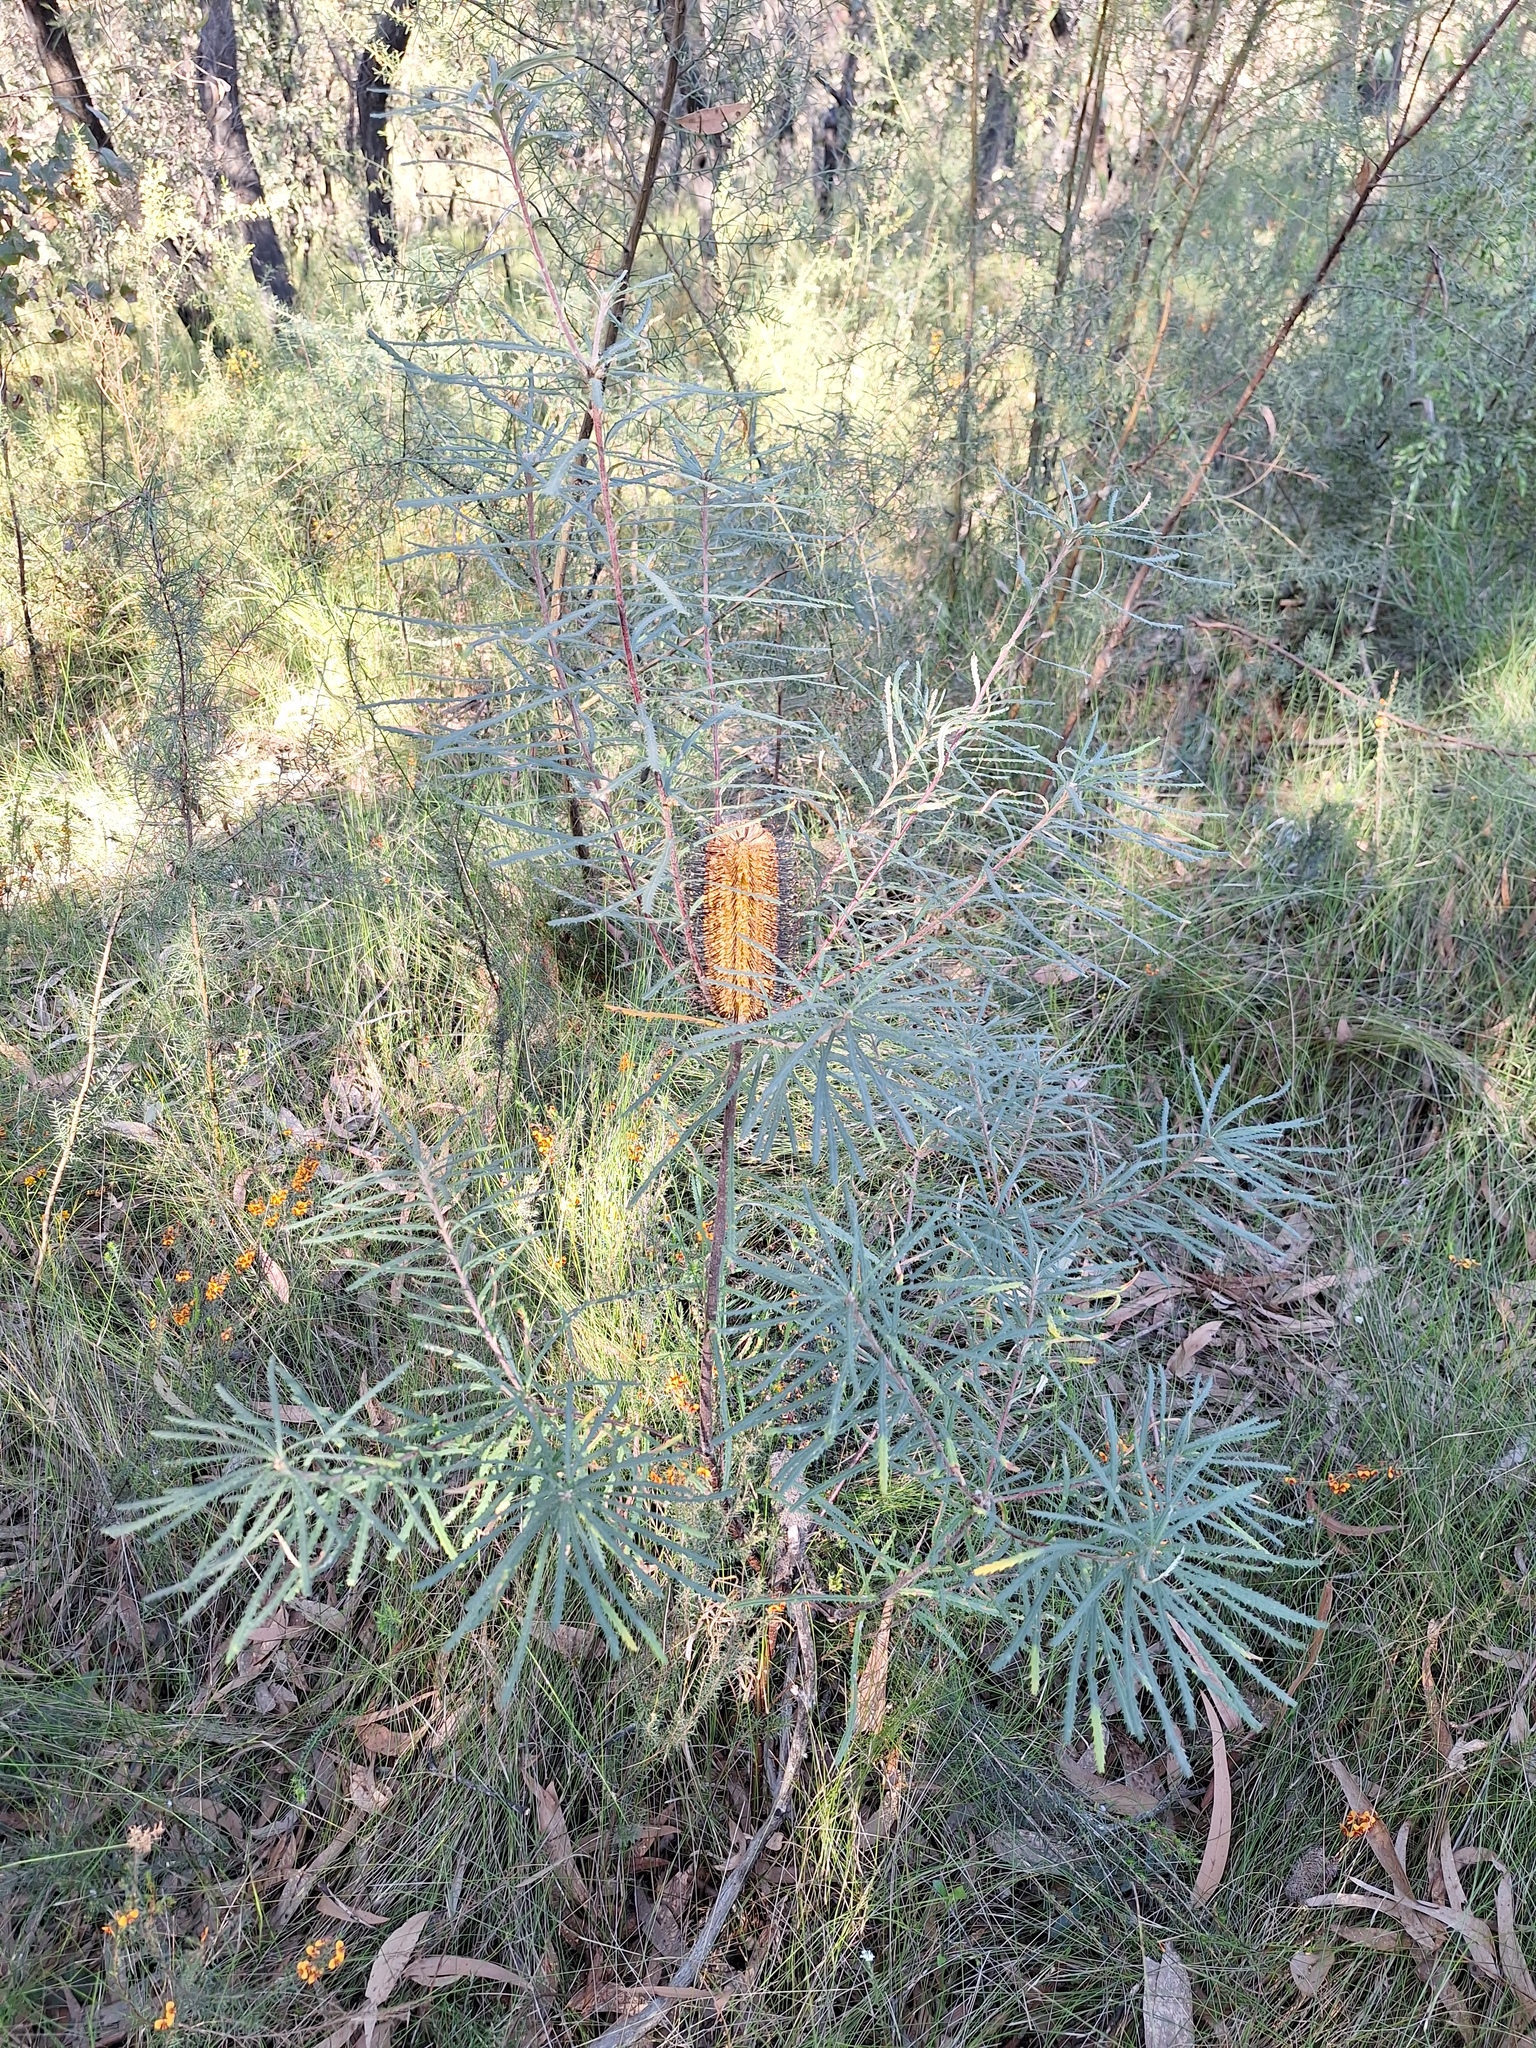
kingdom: Plantae
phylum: Tracheophyta
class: Magnoliopsida
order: Proteales
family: Proteaceae
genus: Banksia
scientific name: Banksia spinulosa
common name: Hairpin banksia
